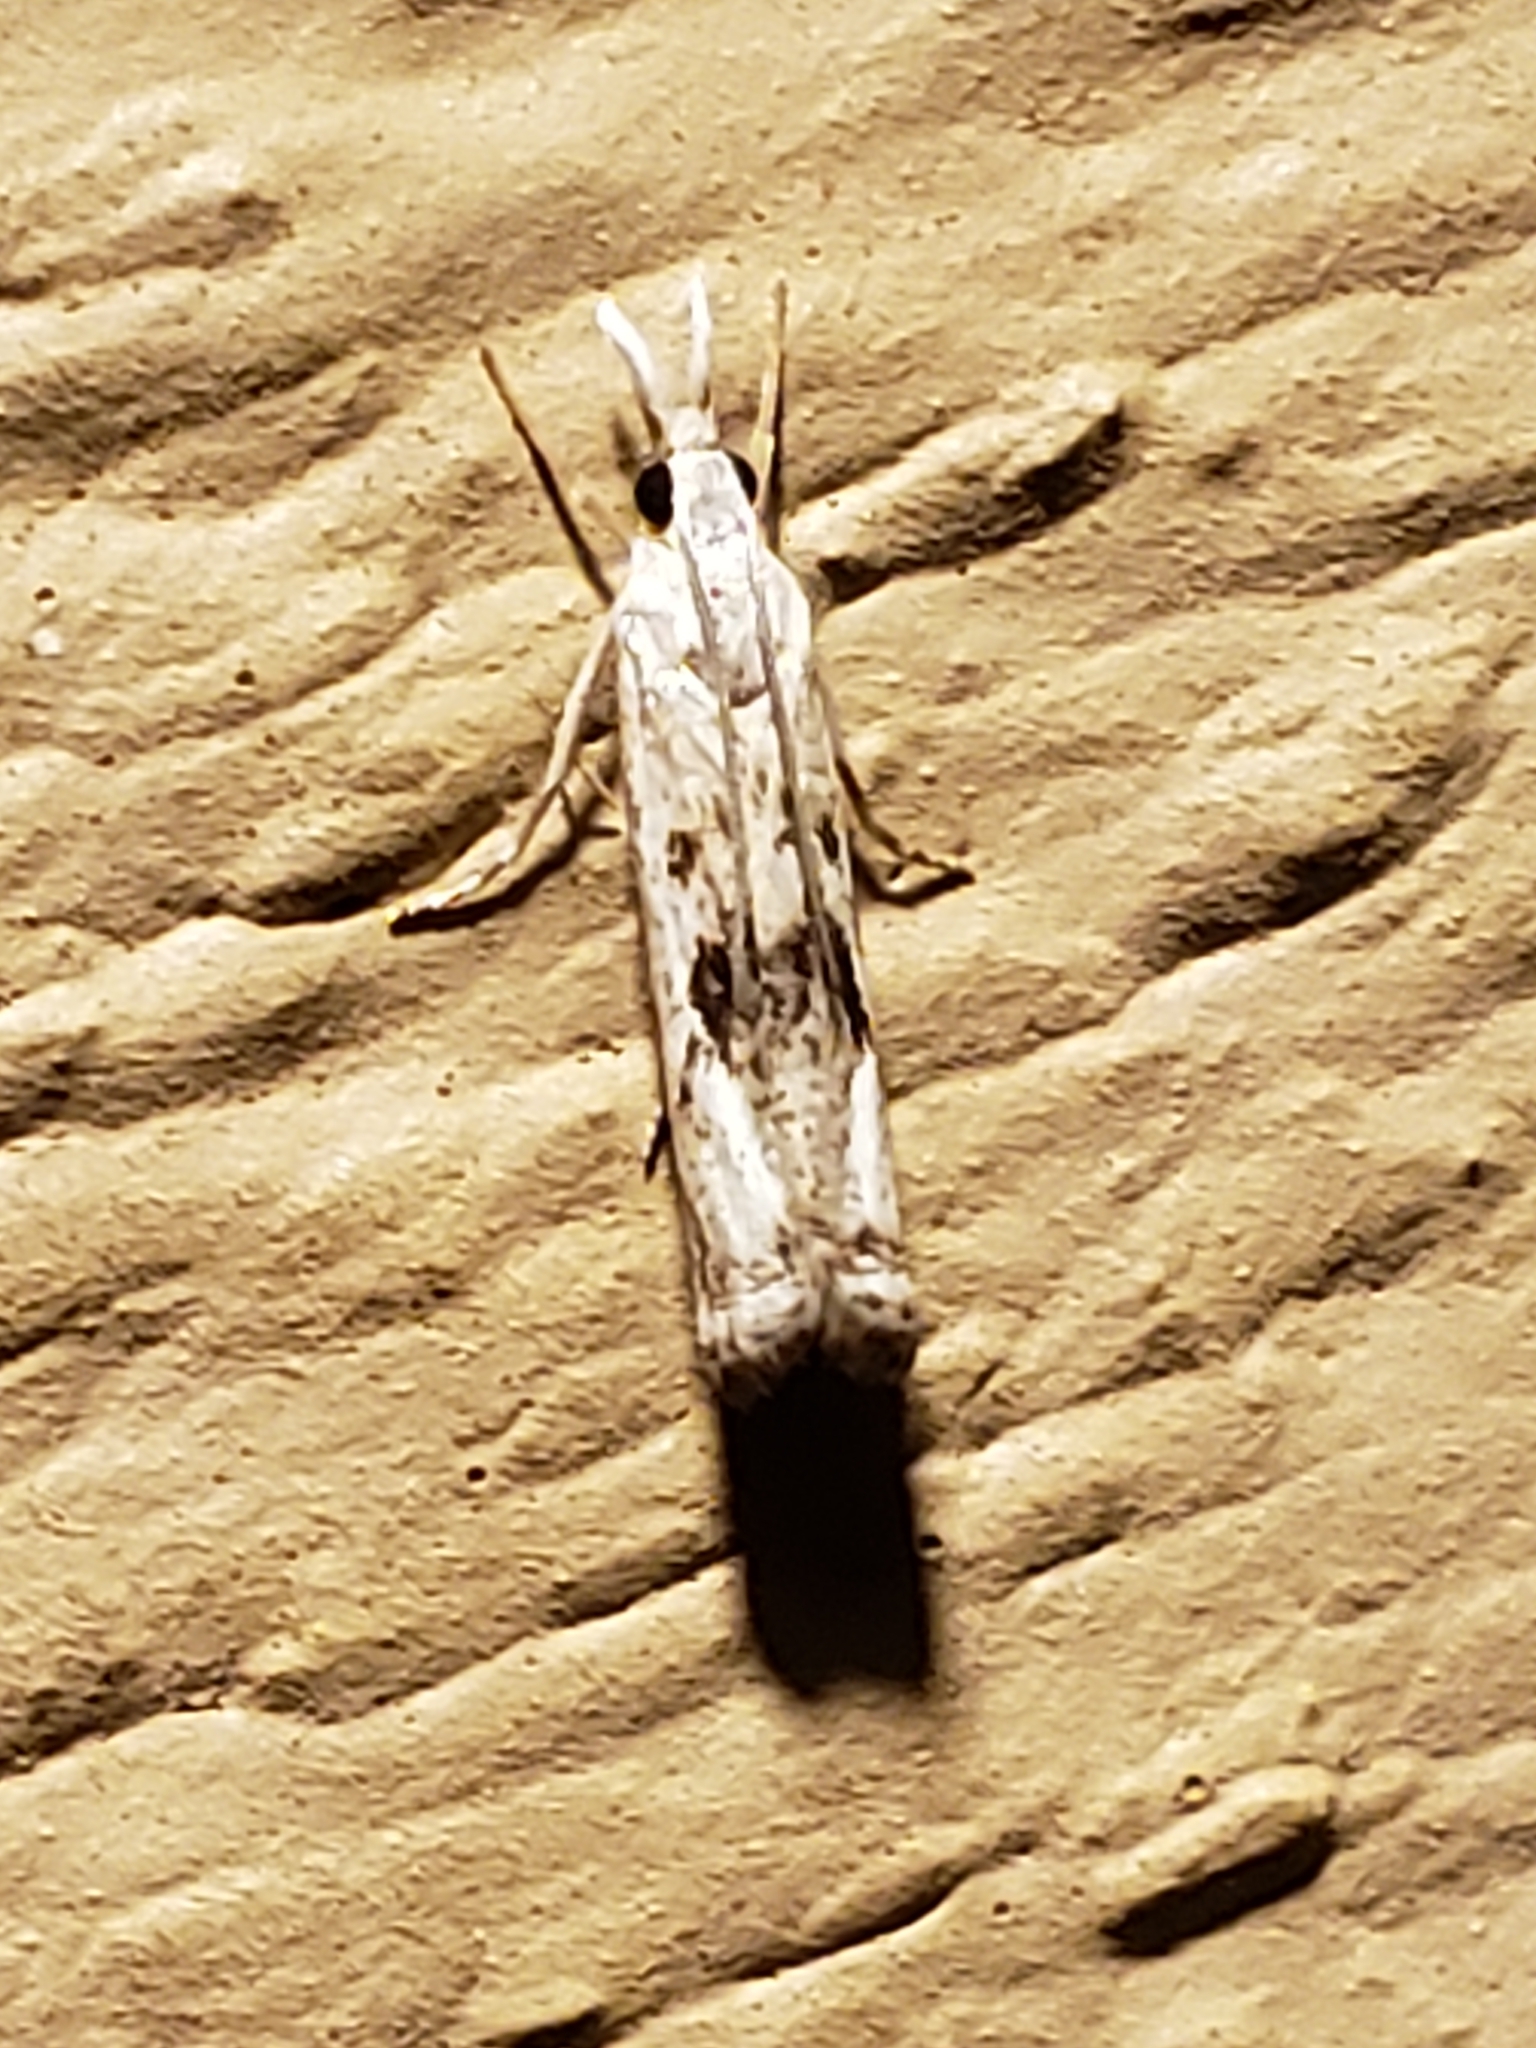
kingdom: Animalia
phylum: Arthropoda
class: Insecta
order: Lepidoptera
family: Crambidae
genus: Microcrambus
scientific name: Microcrambus elegans
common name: Elegant grass-veneer
